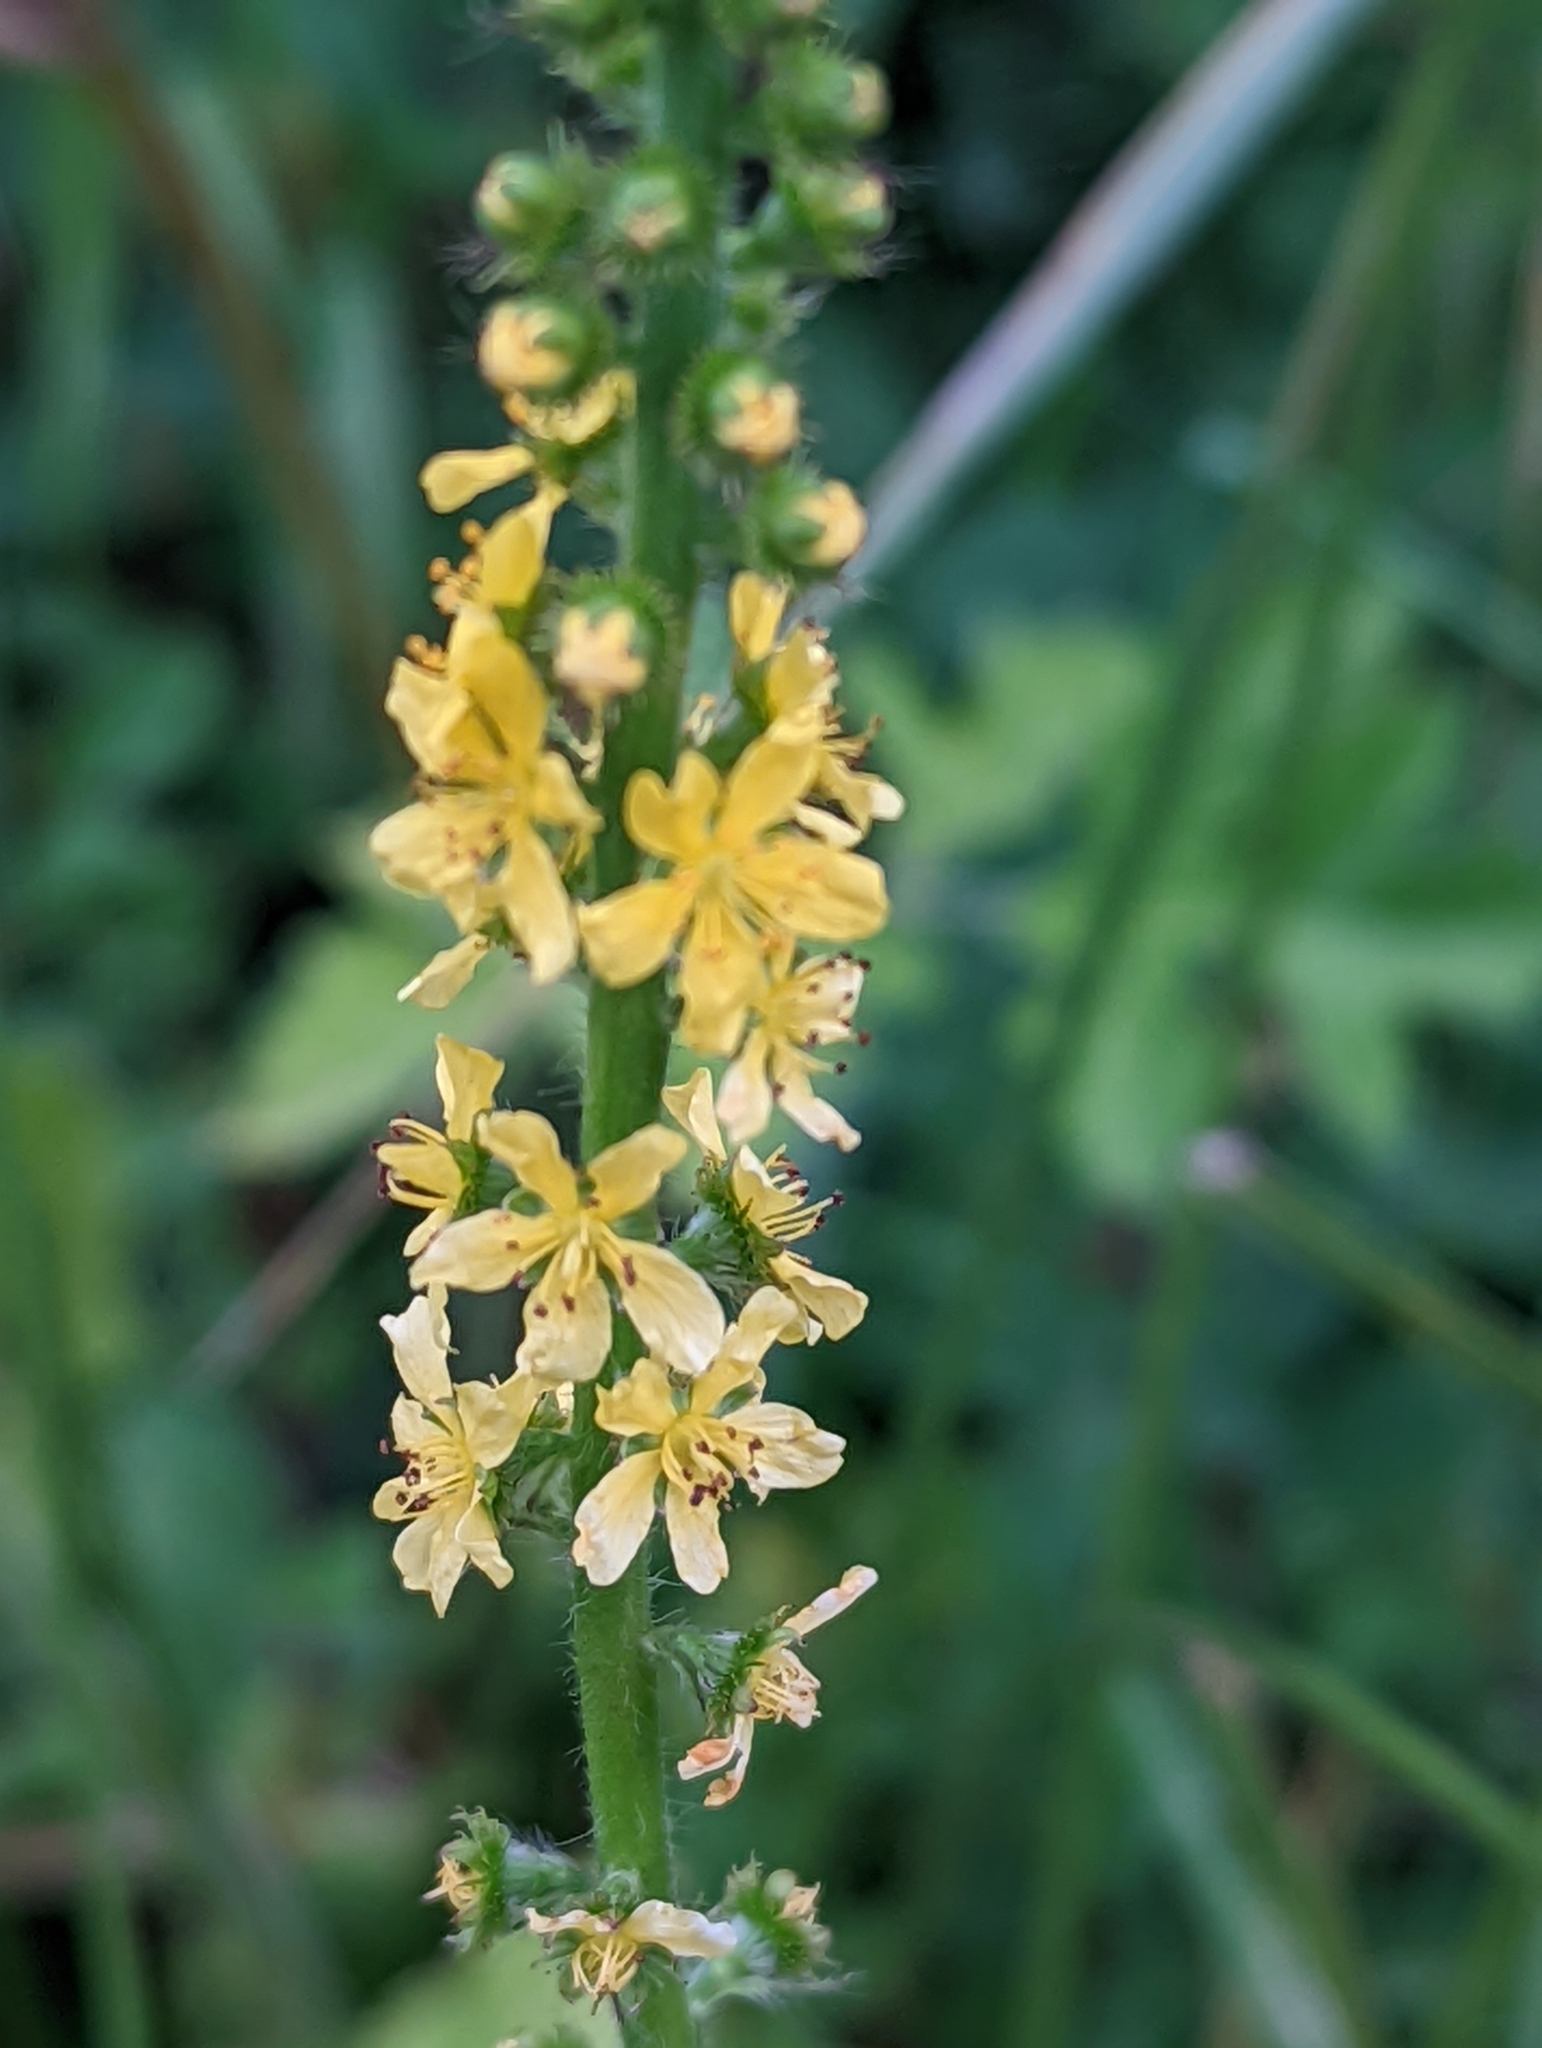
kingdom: Plantae
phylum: Tracheophyta
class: Magnoliopsida
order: Rosales
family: Rosaceae
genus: Agrimonia
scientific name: Agrimonia eupatoria
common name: Agrimony
